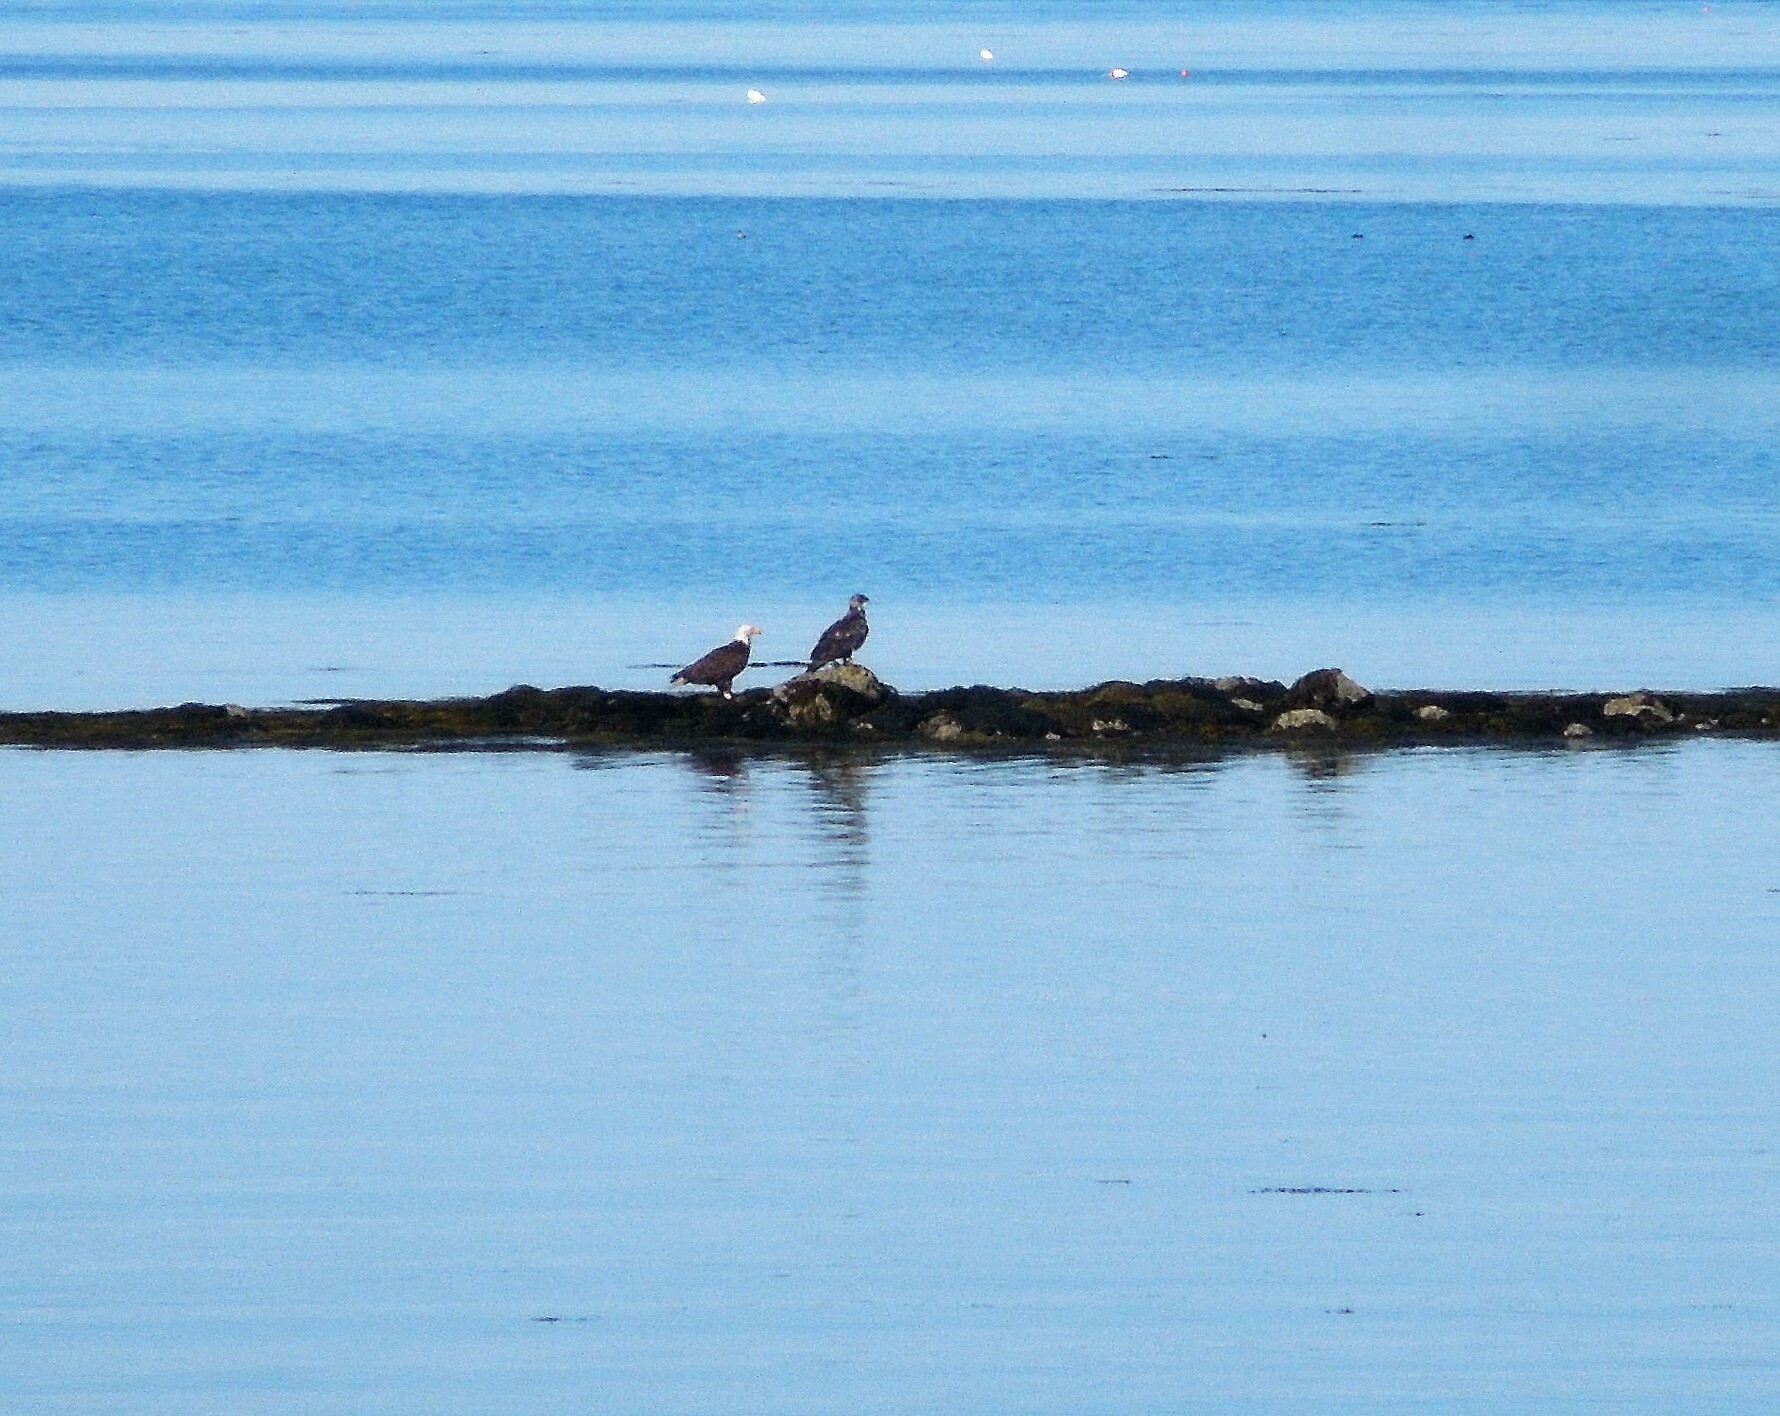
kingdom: Animalia
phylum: Chordata
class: Aves
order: Accipitriformes
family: Accipitridae
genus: Haliaeetus
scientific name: Haliaeetus leucocephalus
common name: Bald eagle
